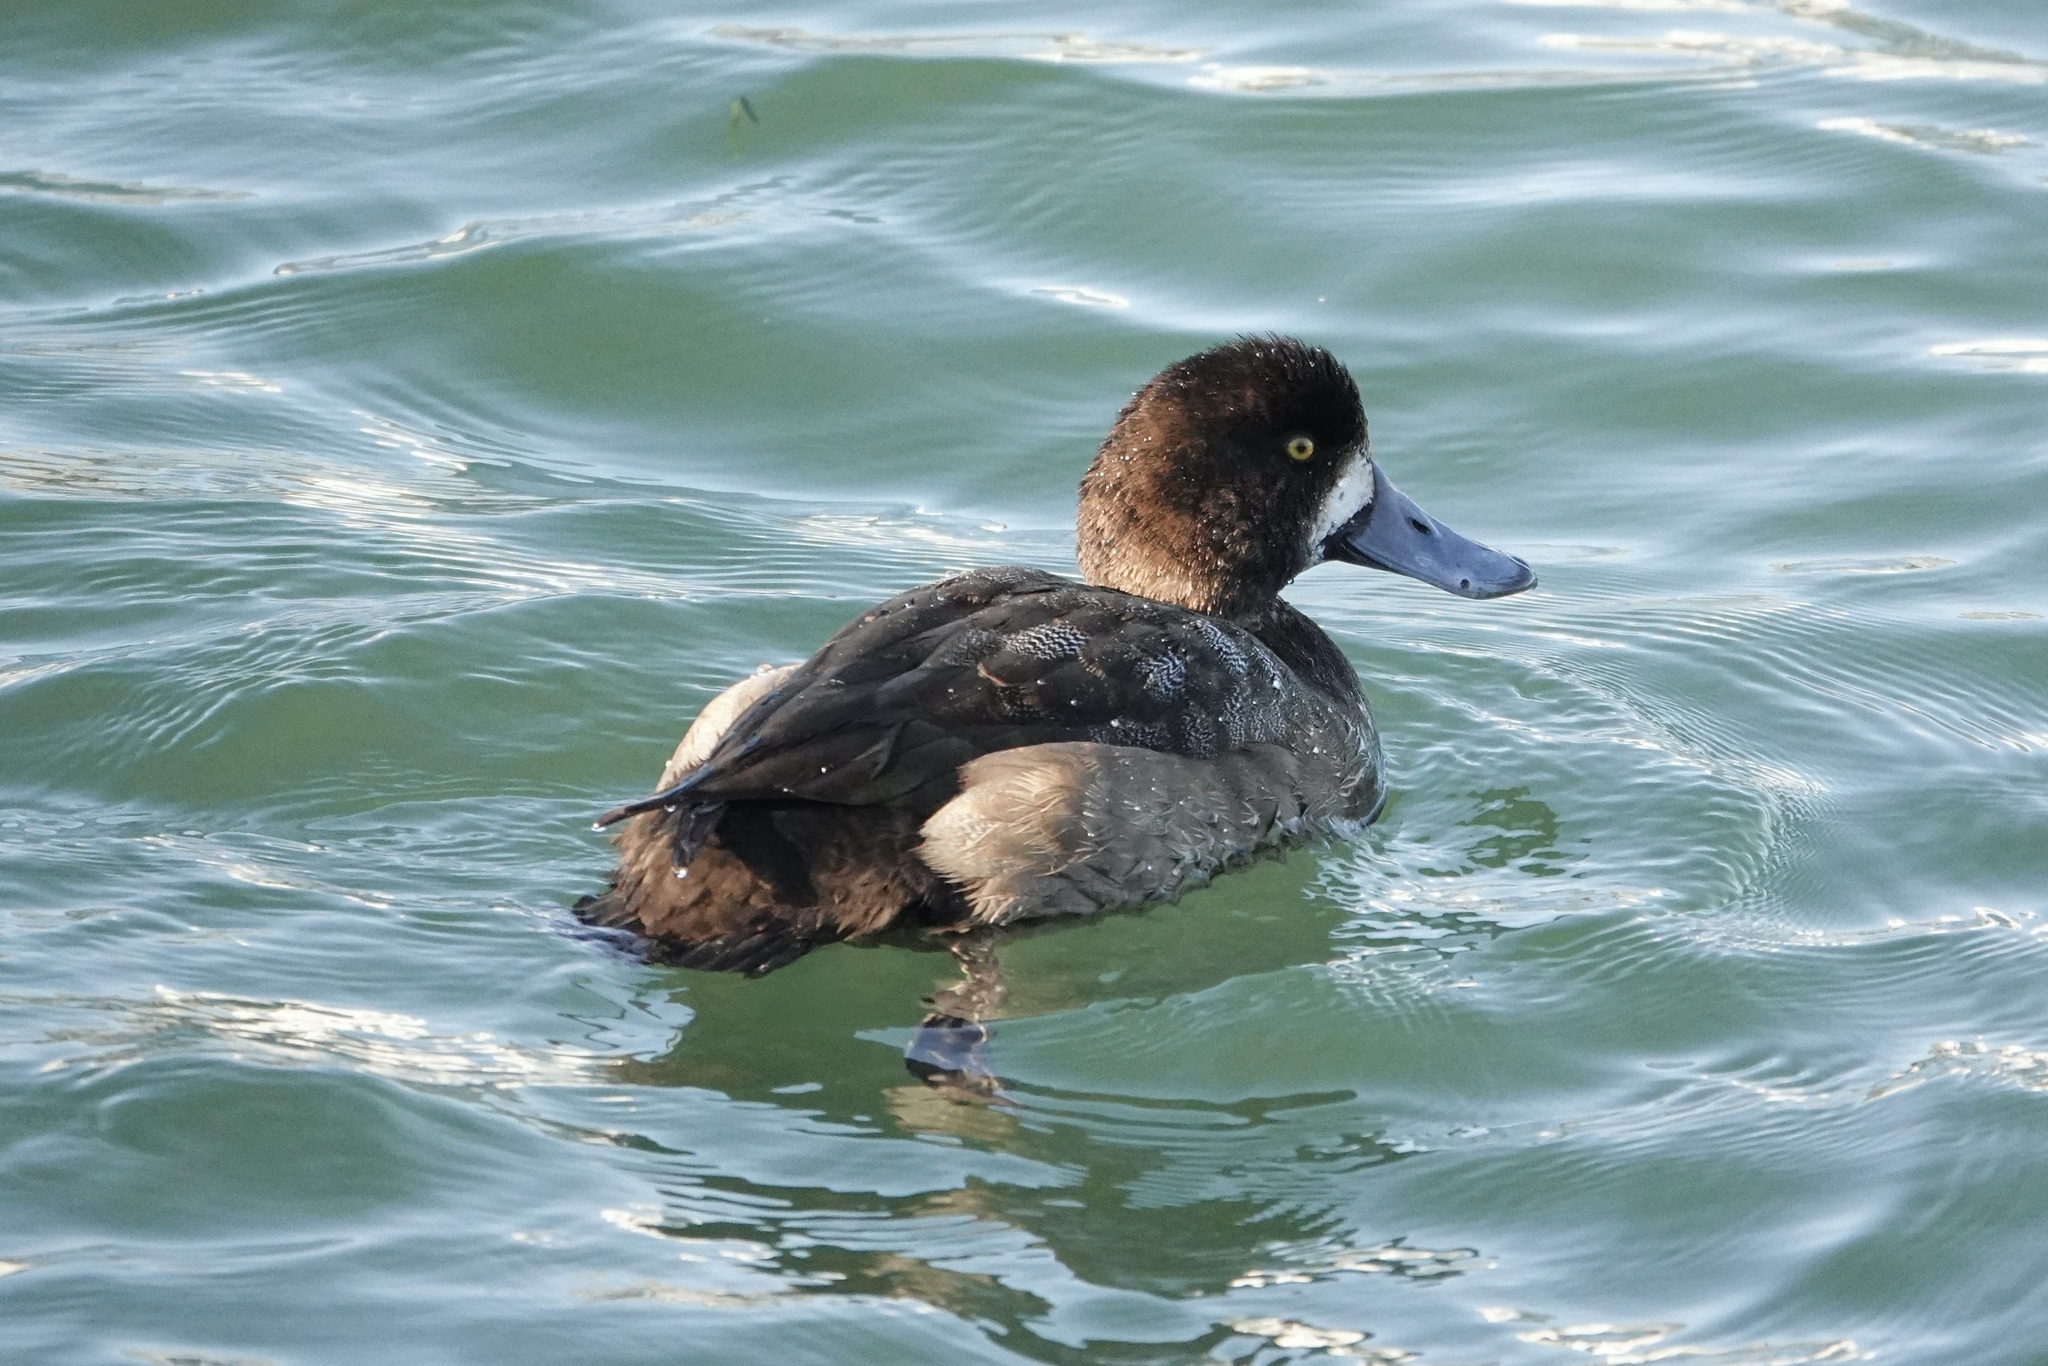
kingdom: Animalia
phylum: Chordata
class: Aves
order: Anseriformes
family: Anatidae
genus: Aythya
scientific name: Aythya marila
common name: Greater scaup
